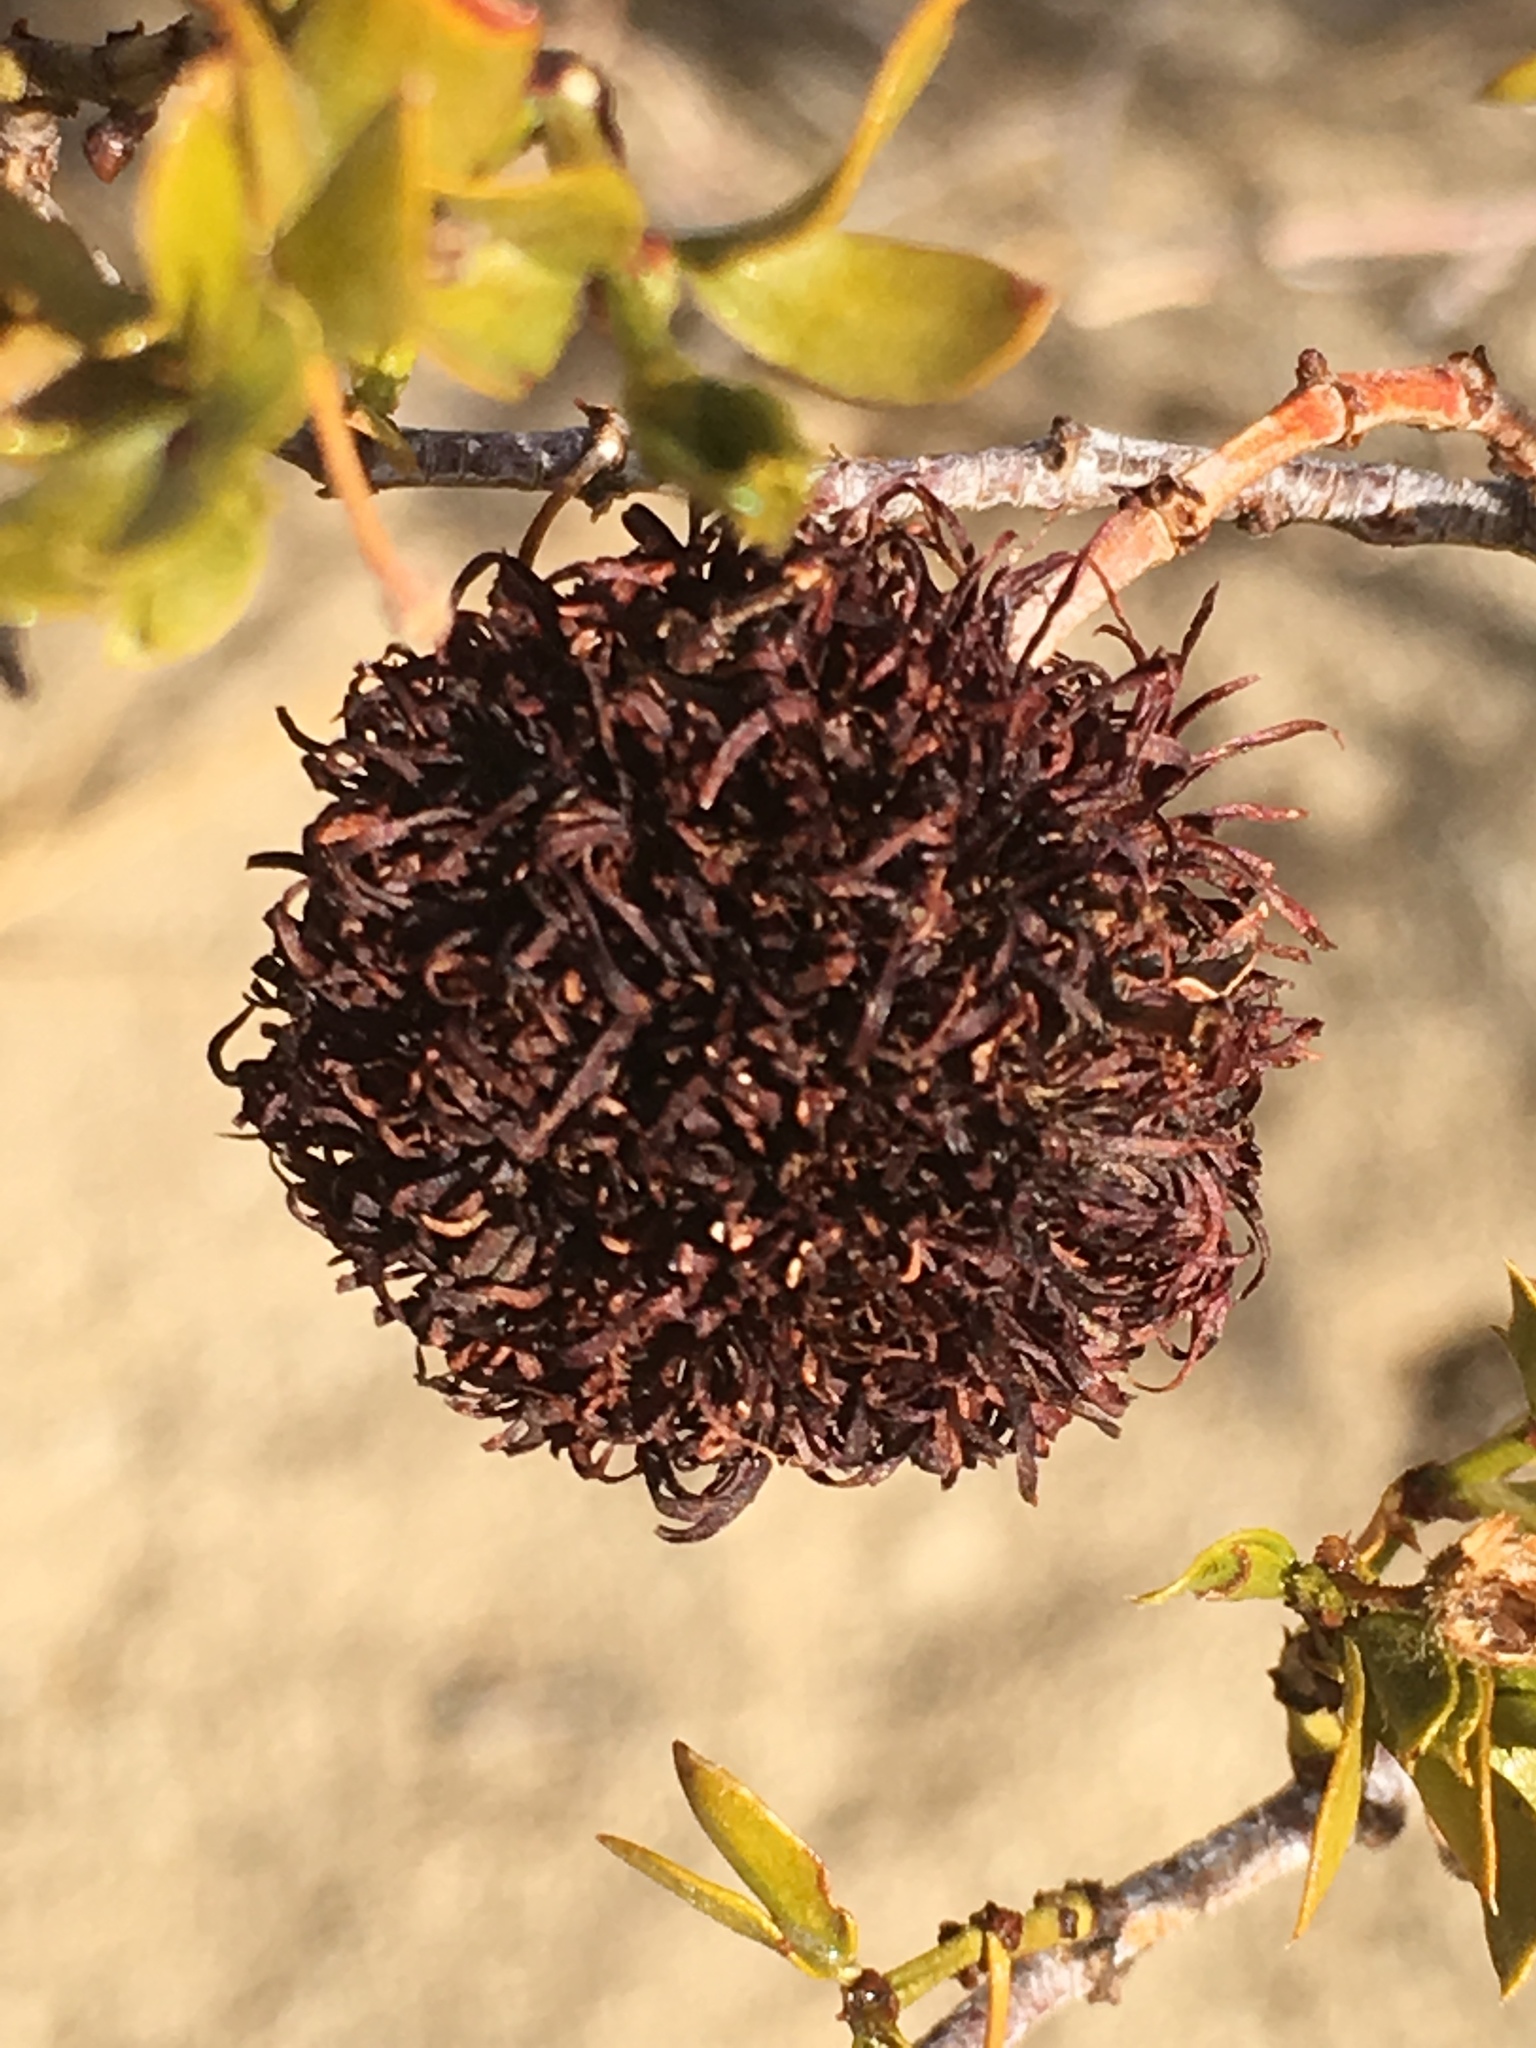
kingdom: Plantae
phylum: Tracheophyta
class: Magnoliopsida
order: Zygophyllales
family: Zygophyllaceae
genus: Larrea
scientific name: Larrea tridentata
